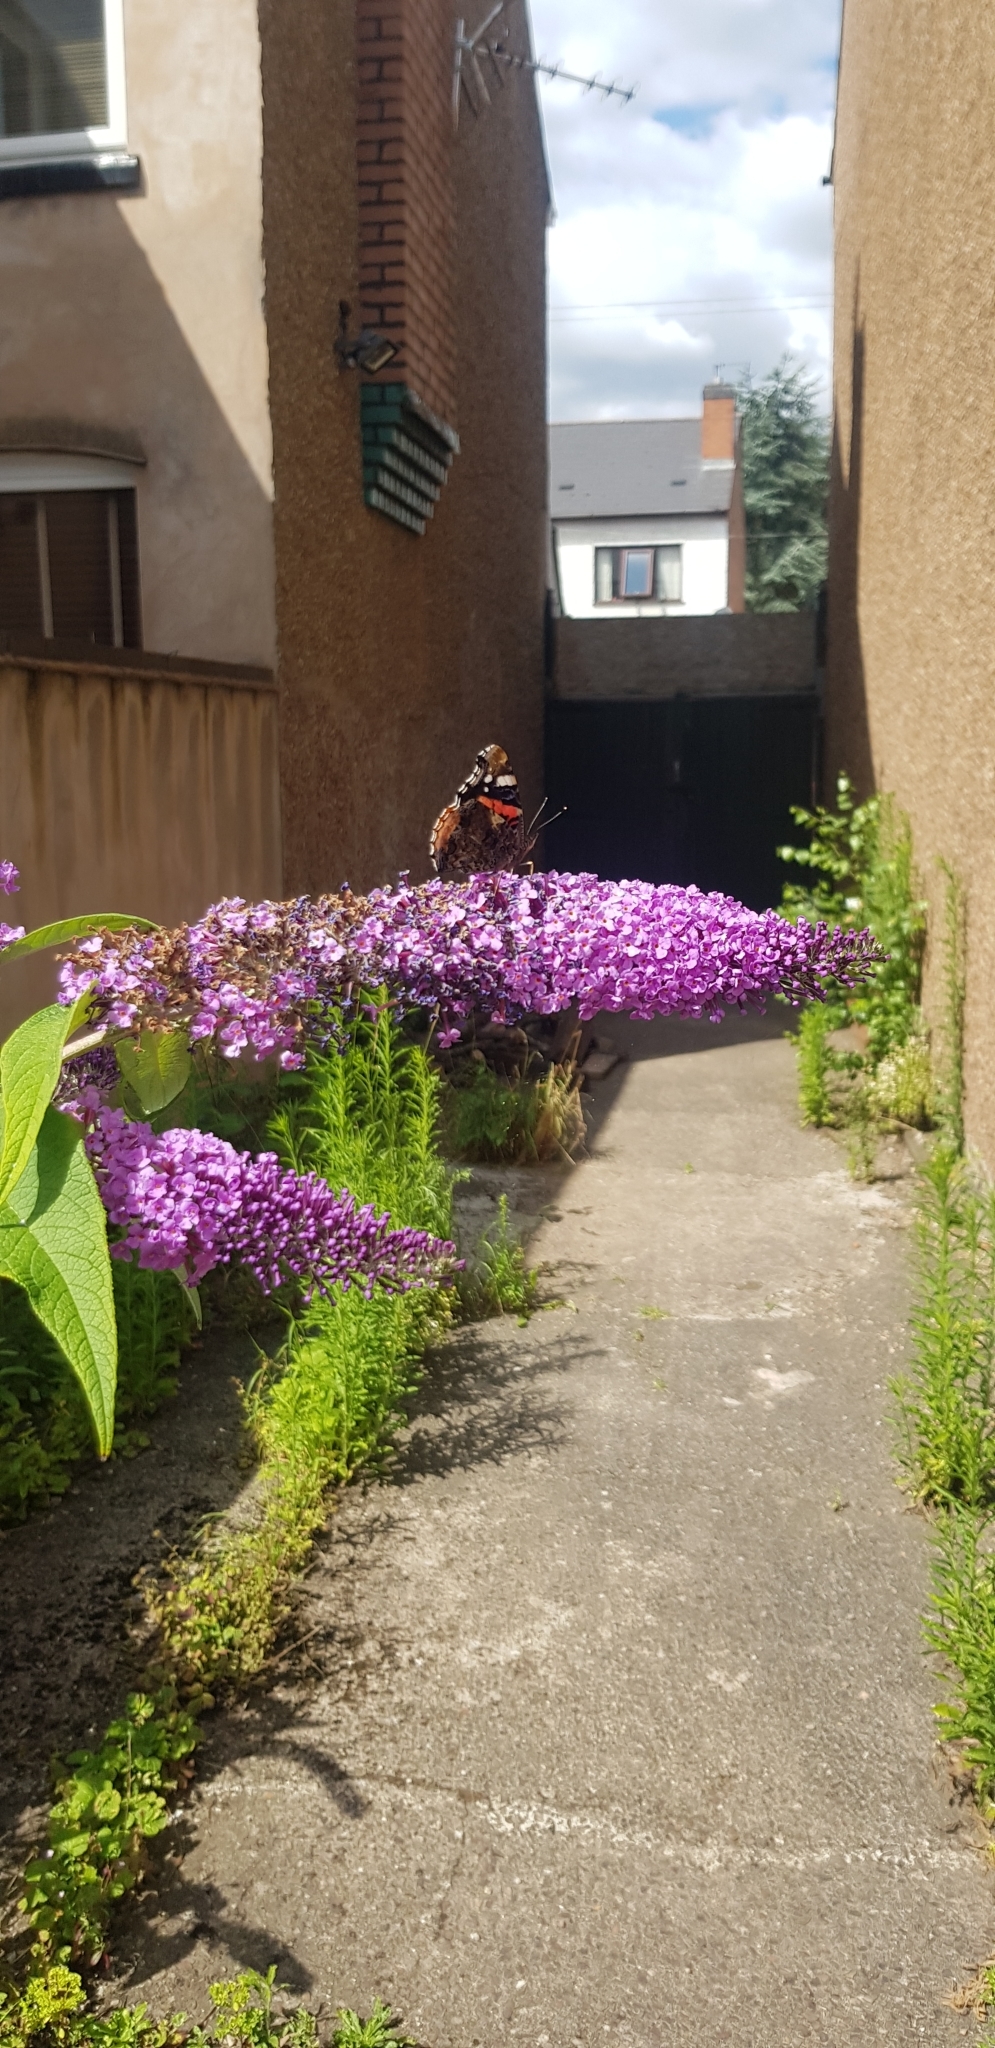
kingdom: Animalia
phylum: Arthropoda
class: Insecta
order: Lepidoptera
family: Nymphalidae
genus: Vanessa
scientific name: Vanessa atalanta
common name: Red admiral
